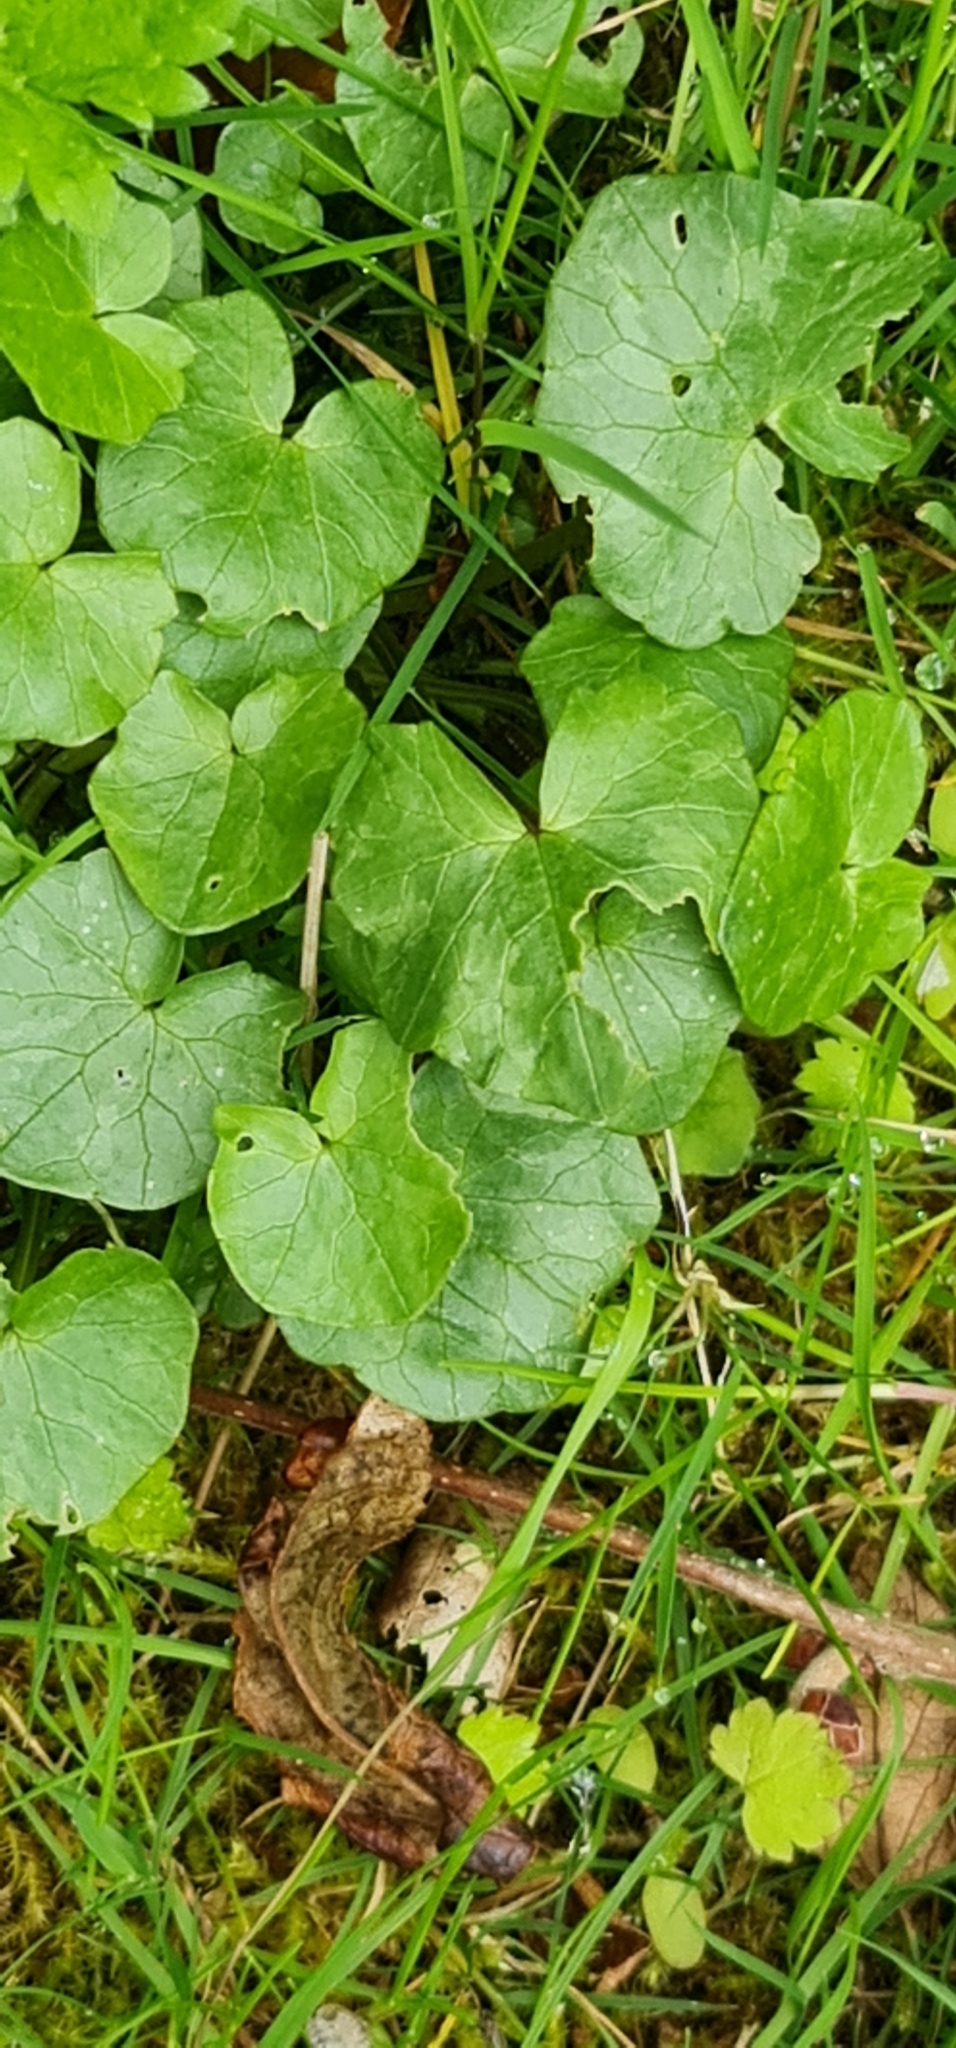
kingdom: Plantae
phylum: Tracheophyta
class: Magnoliopsida
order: Ranunculales
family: Ranunculaceae
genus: Ficaria
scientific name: Ficaria verna
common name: Lesser celandine
